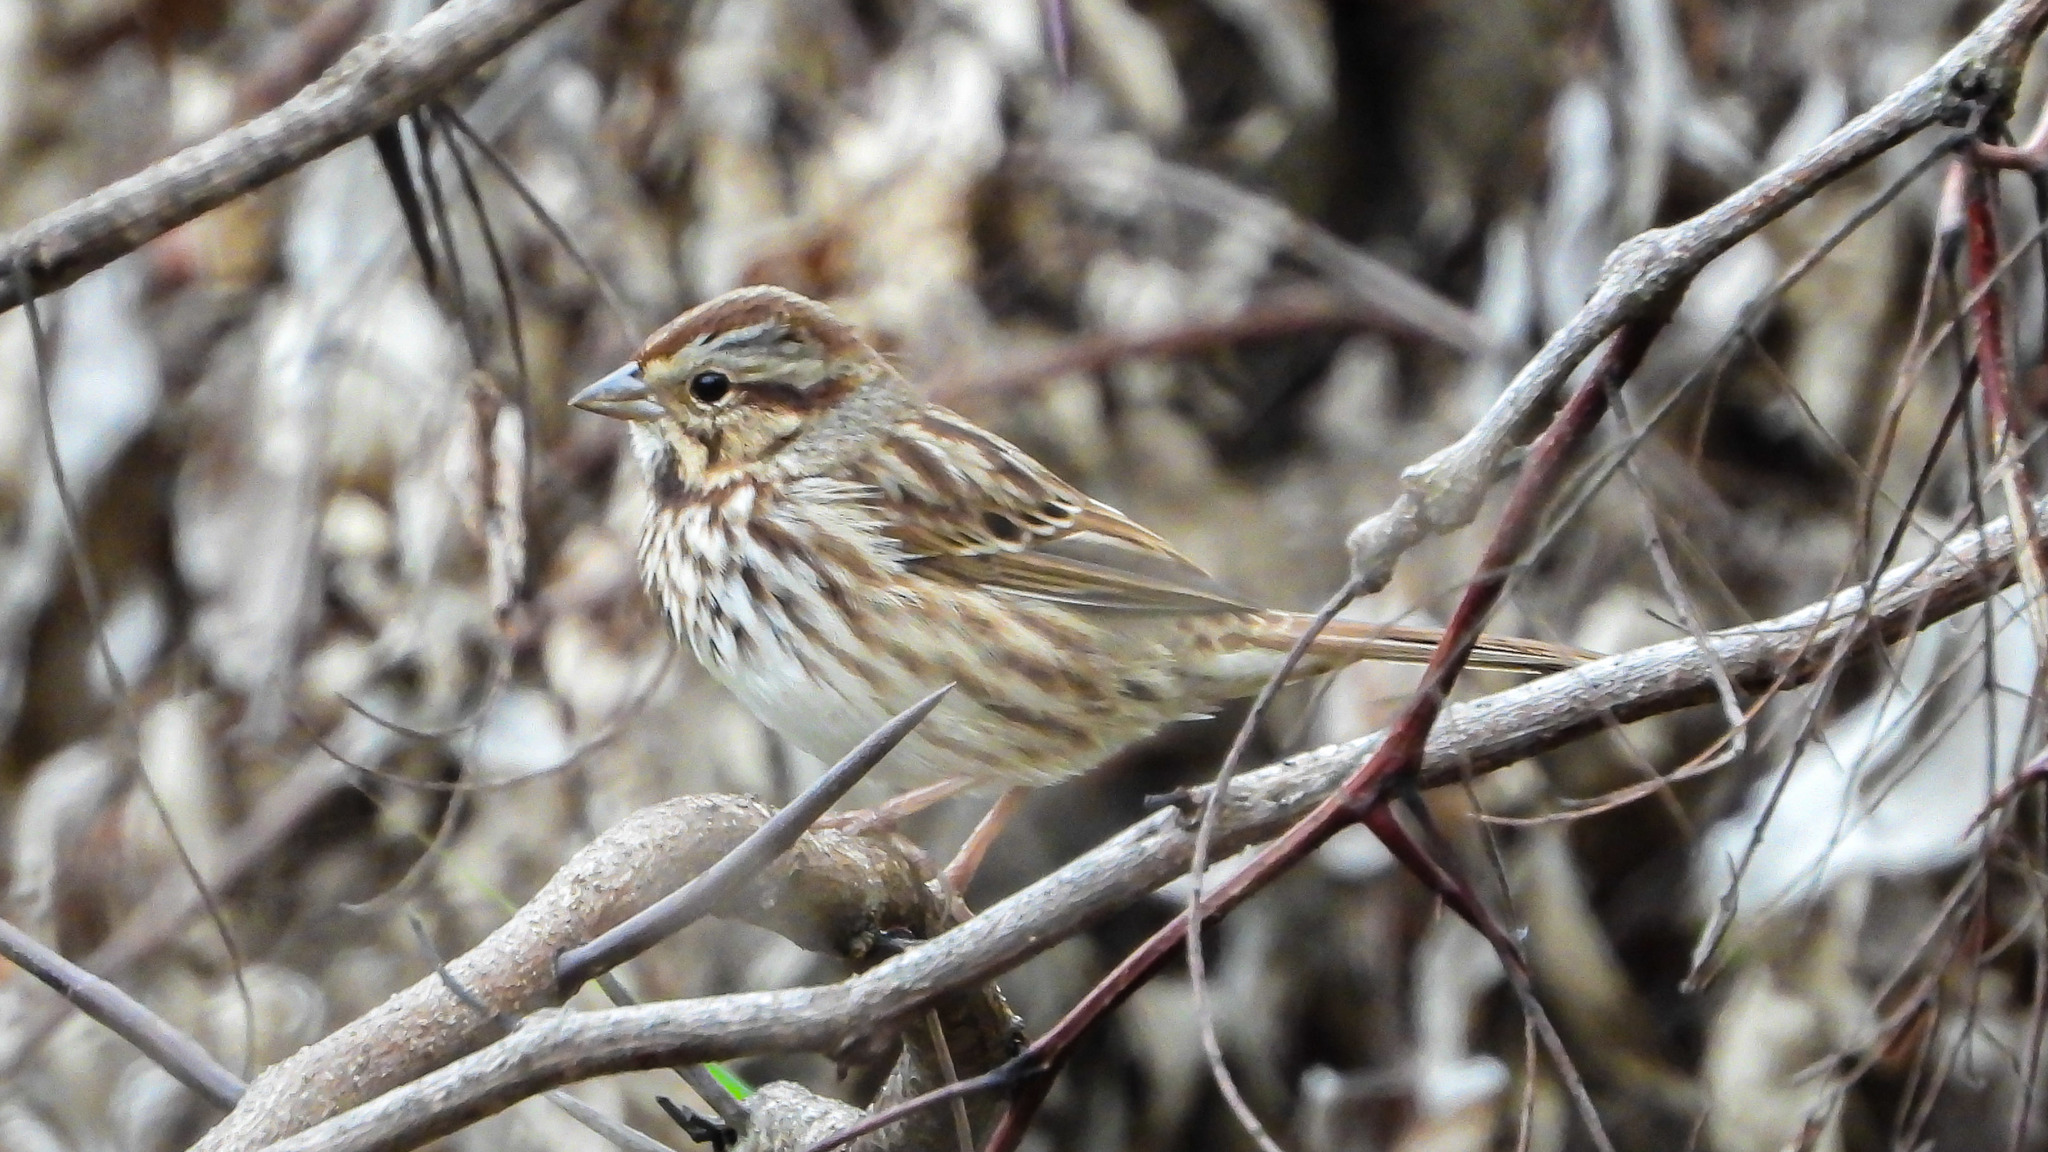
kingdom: Animalia
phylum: Chordata
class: Aves
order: Passeriformes
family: Passerellidae
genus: Melospiza
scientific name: Melospiza melodia
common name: Song sparrow
